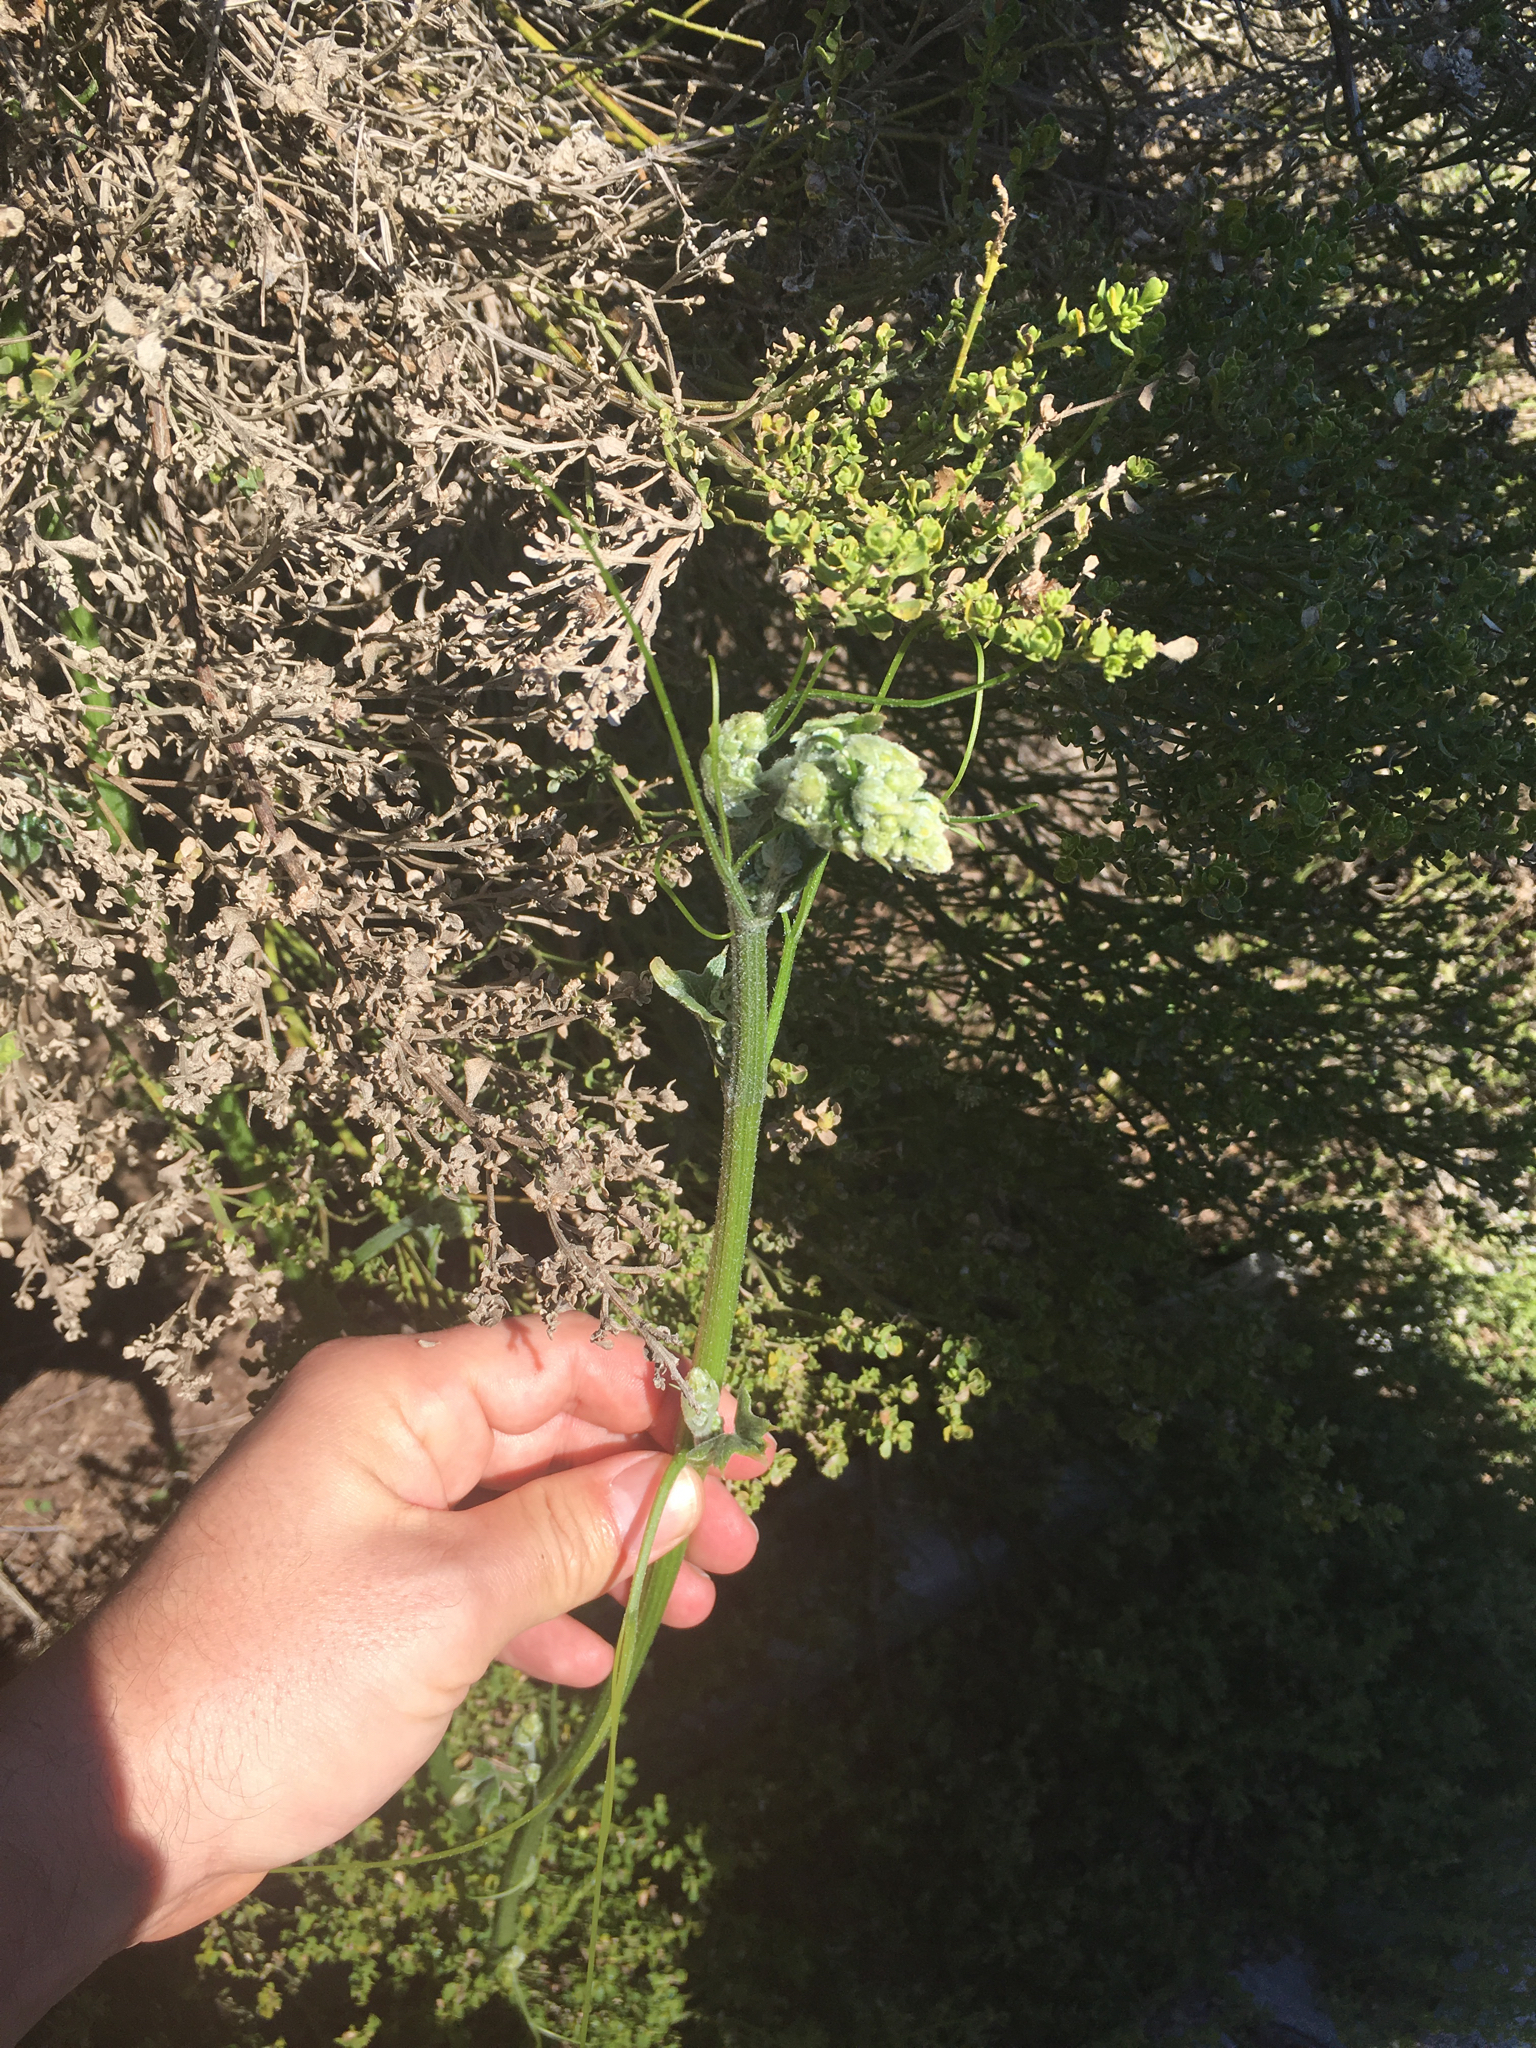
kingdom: Plantae
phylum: Tracheophyta
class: Magnoliopsida
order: Cucurbitales
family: Cucurbitaceae
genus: Marah
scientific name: Marah
